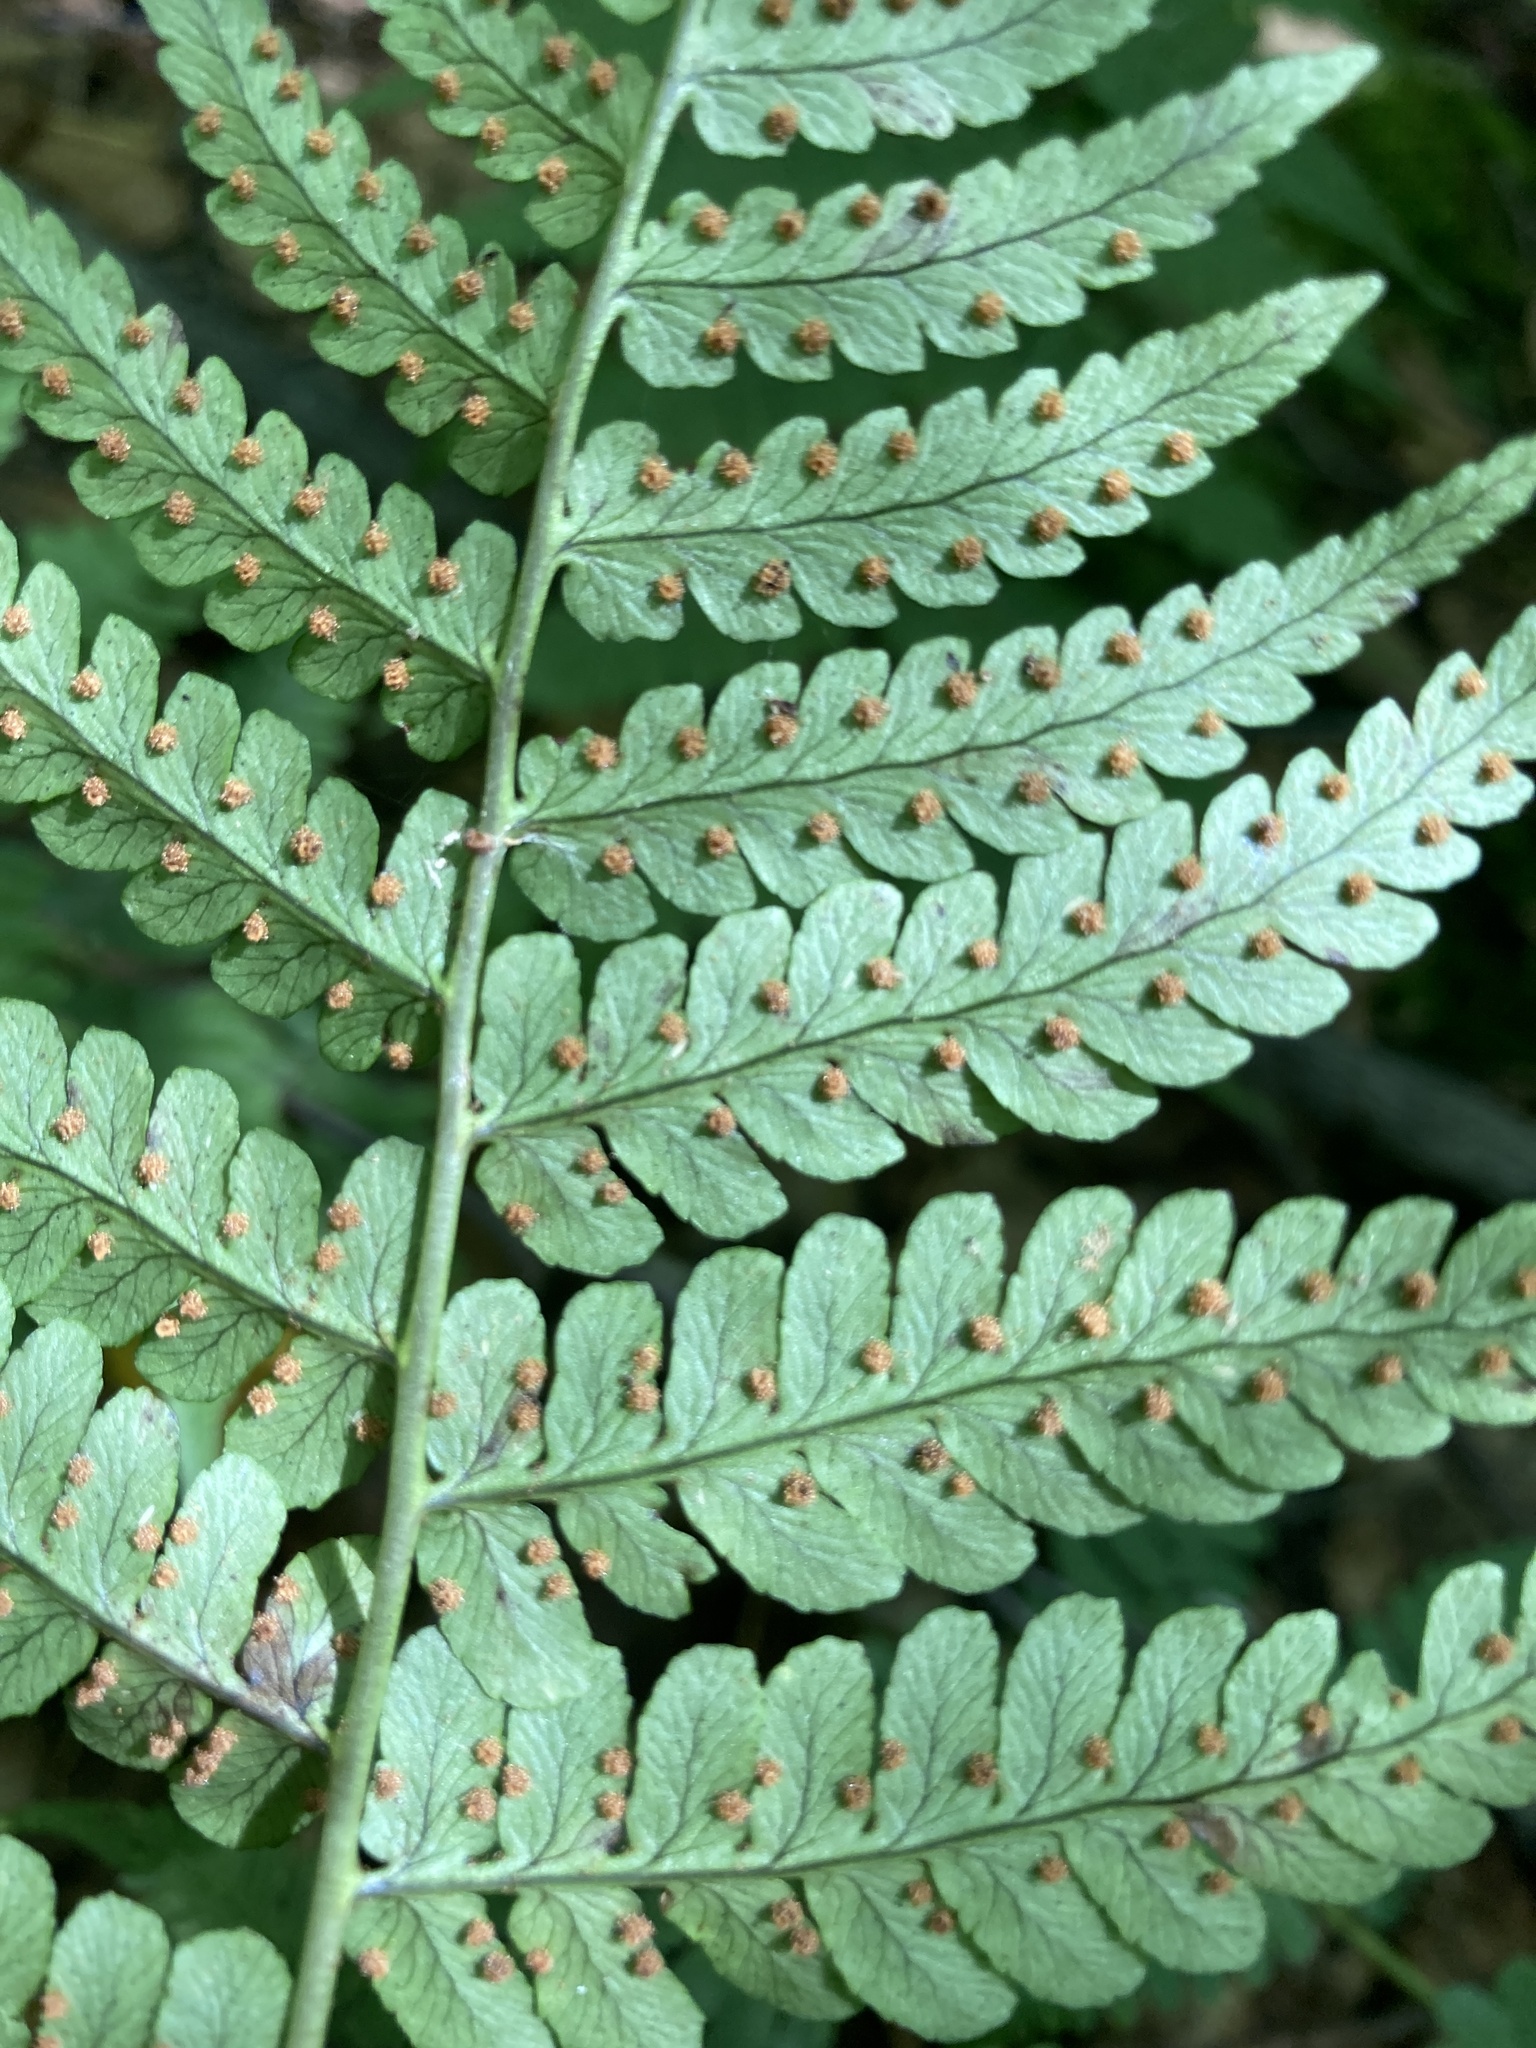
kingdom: Plantae
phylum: Tracheophyta
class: Polypodiopsida
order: Polypodiales
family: Dryopteridaceae
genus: Dryopteris
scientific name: Dryopteris marginalis
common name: Marginal wood fern
